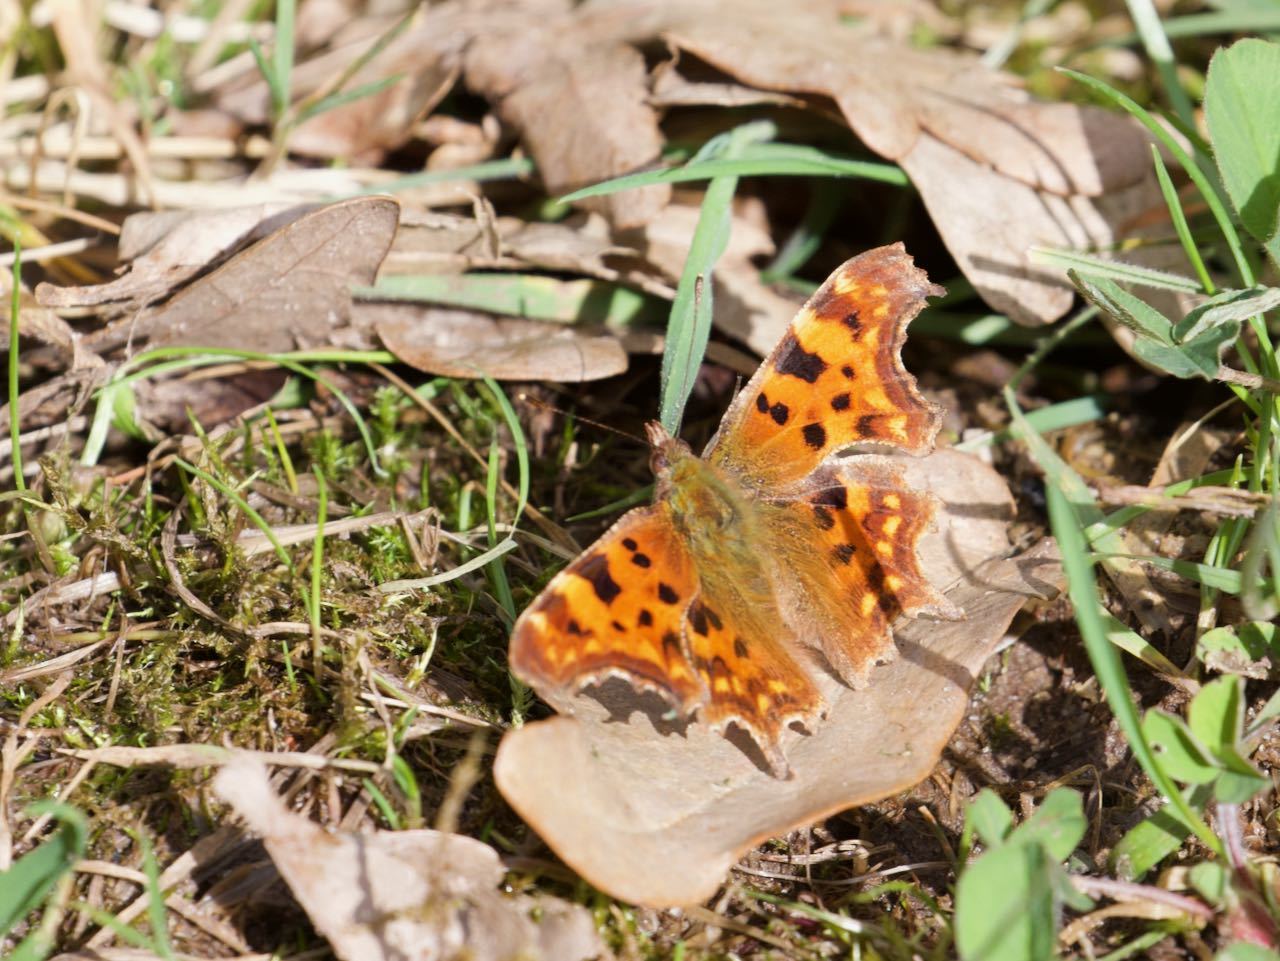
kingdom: Animalia
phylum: Arthropoda
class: Insecta
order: Lepidoptera
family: Nymphalidae
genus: Polygonia
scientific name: Polygonia c-album
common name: Comma
